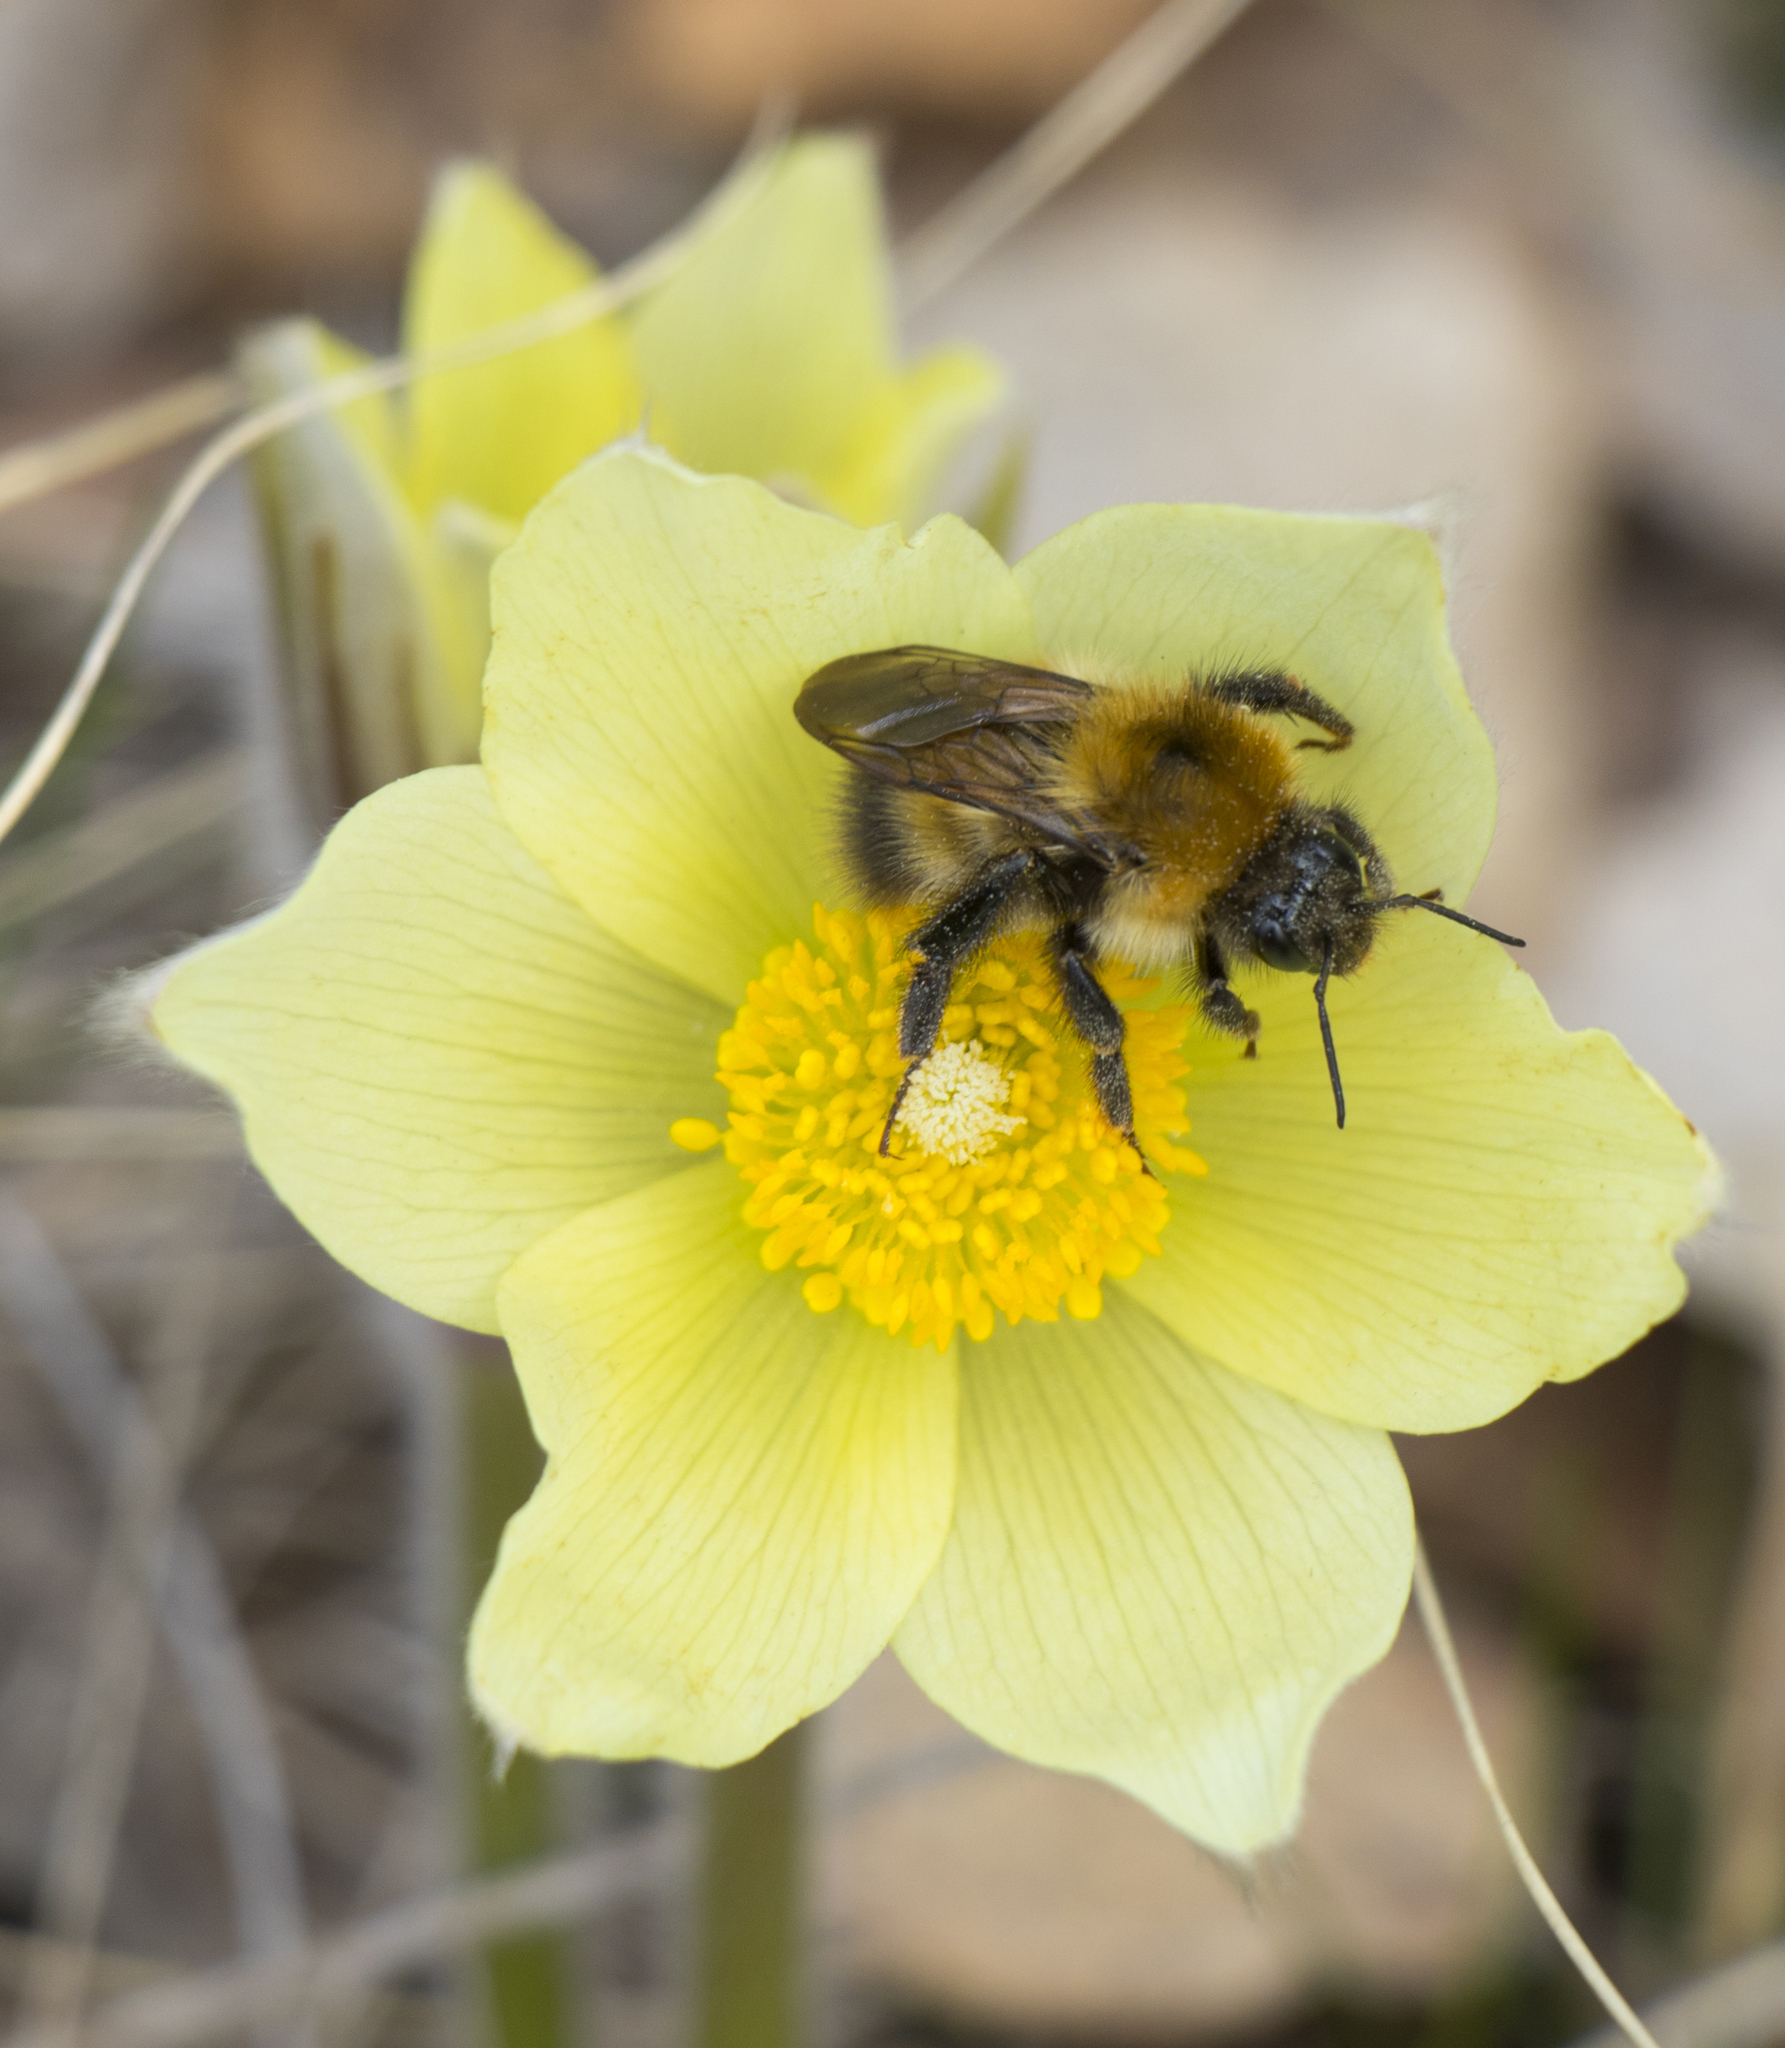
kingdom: Animalia
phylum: Arthropoda
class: Insecta
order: Hymenoptera
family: Apidae
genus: Bombus
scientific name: Bombus modestus
